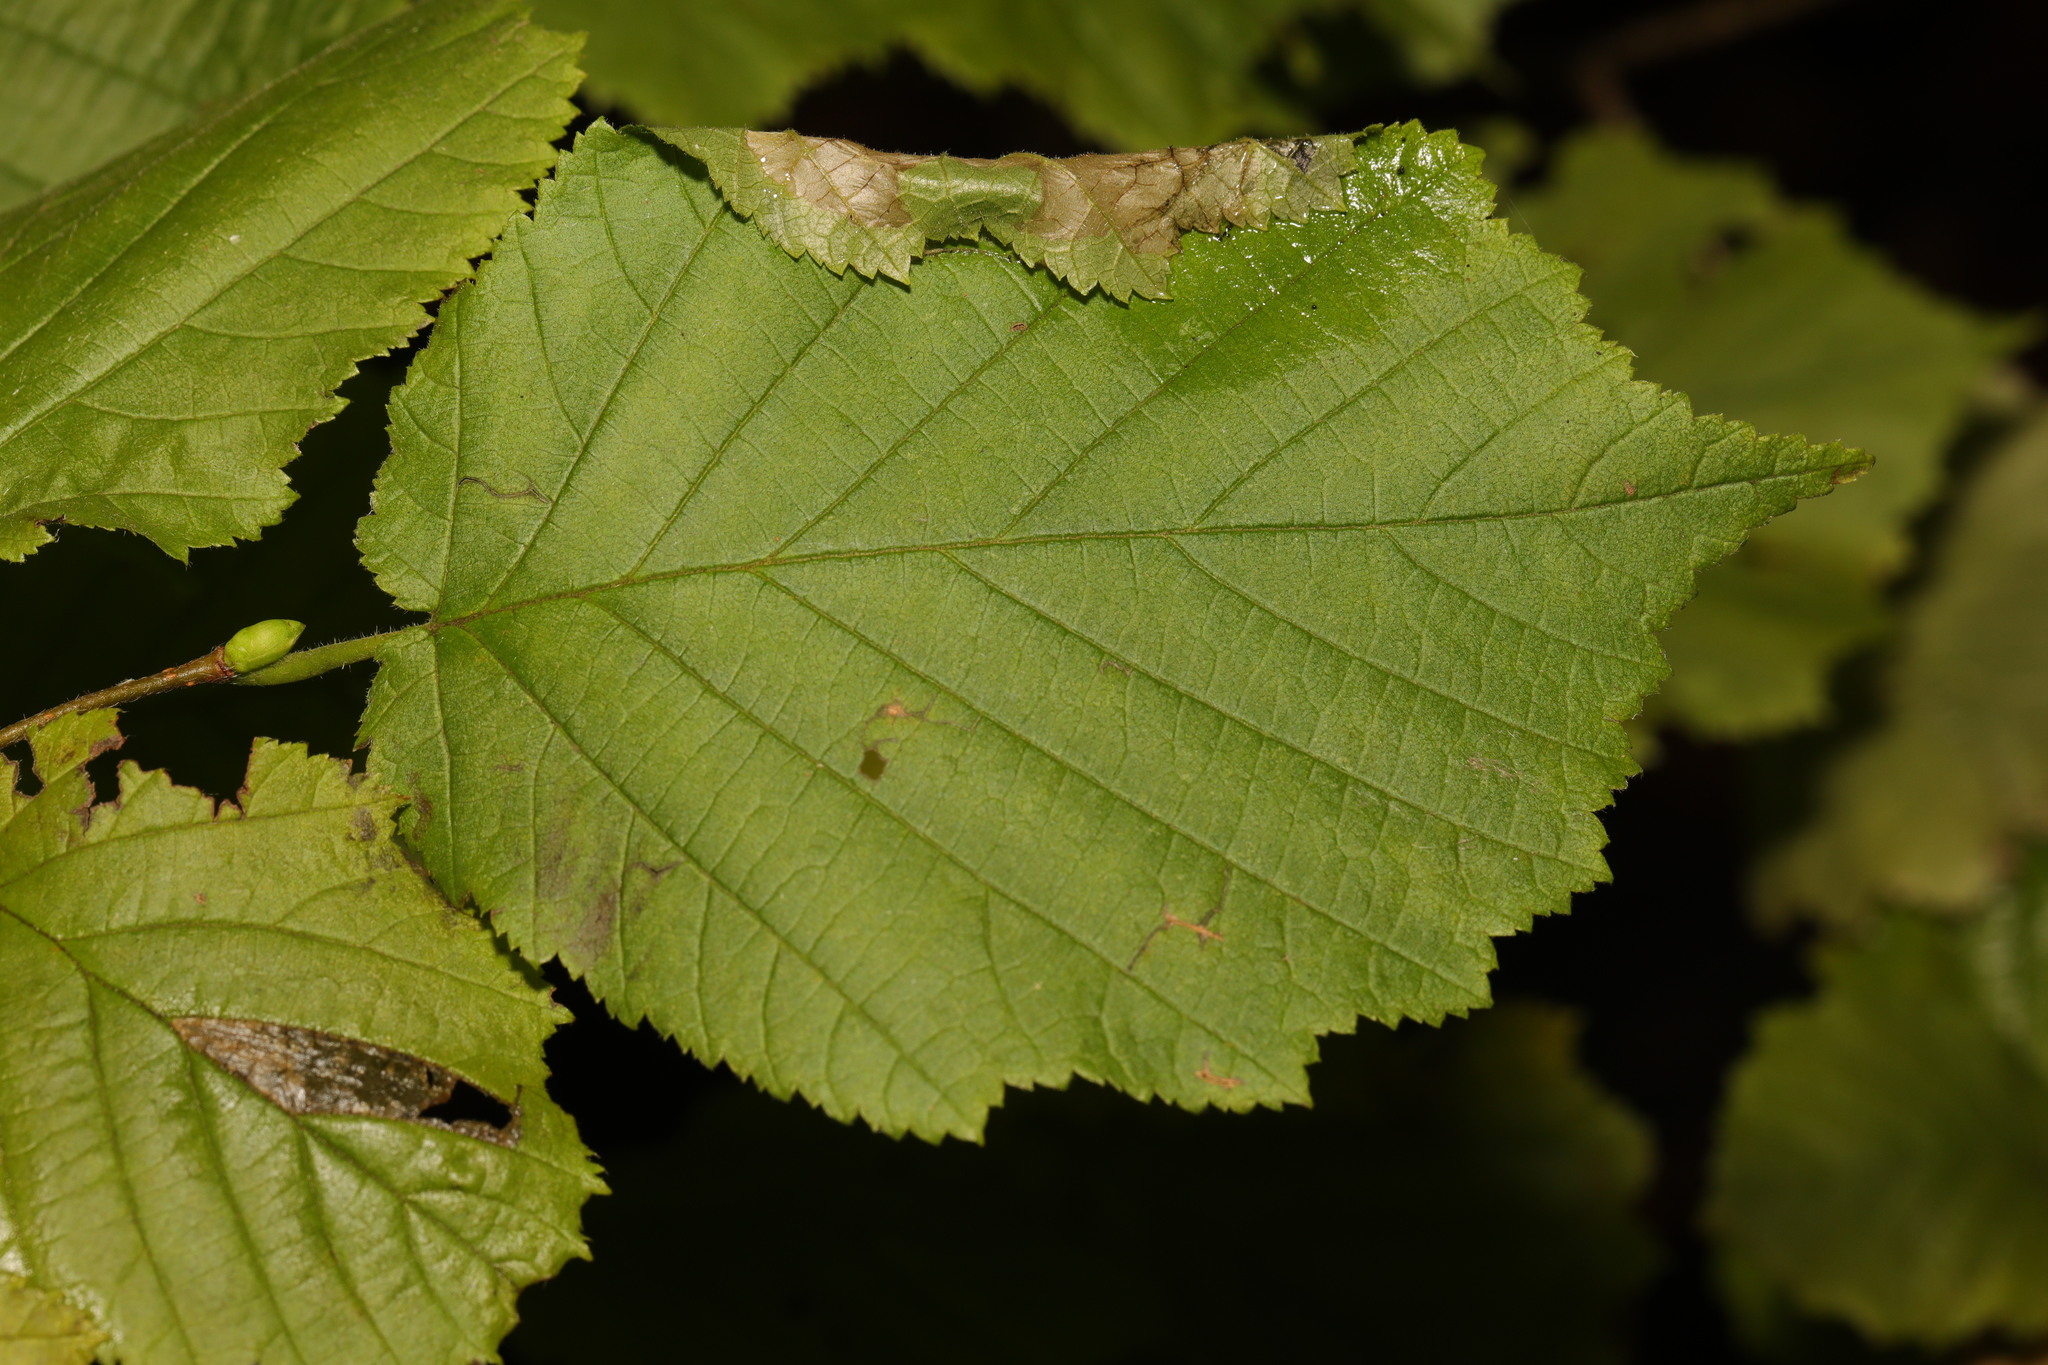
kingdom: Plantae
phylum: Tracheophyta
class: Magnoliopsida
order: Fagales
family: Betulaceae
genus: Corylus
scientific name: Corylus avellana
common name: European hazel
